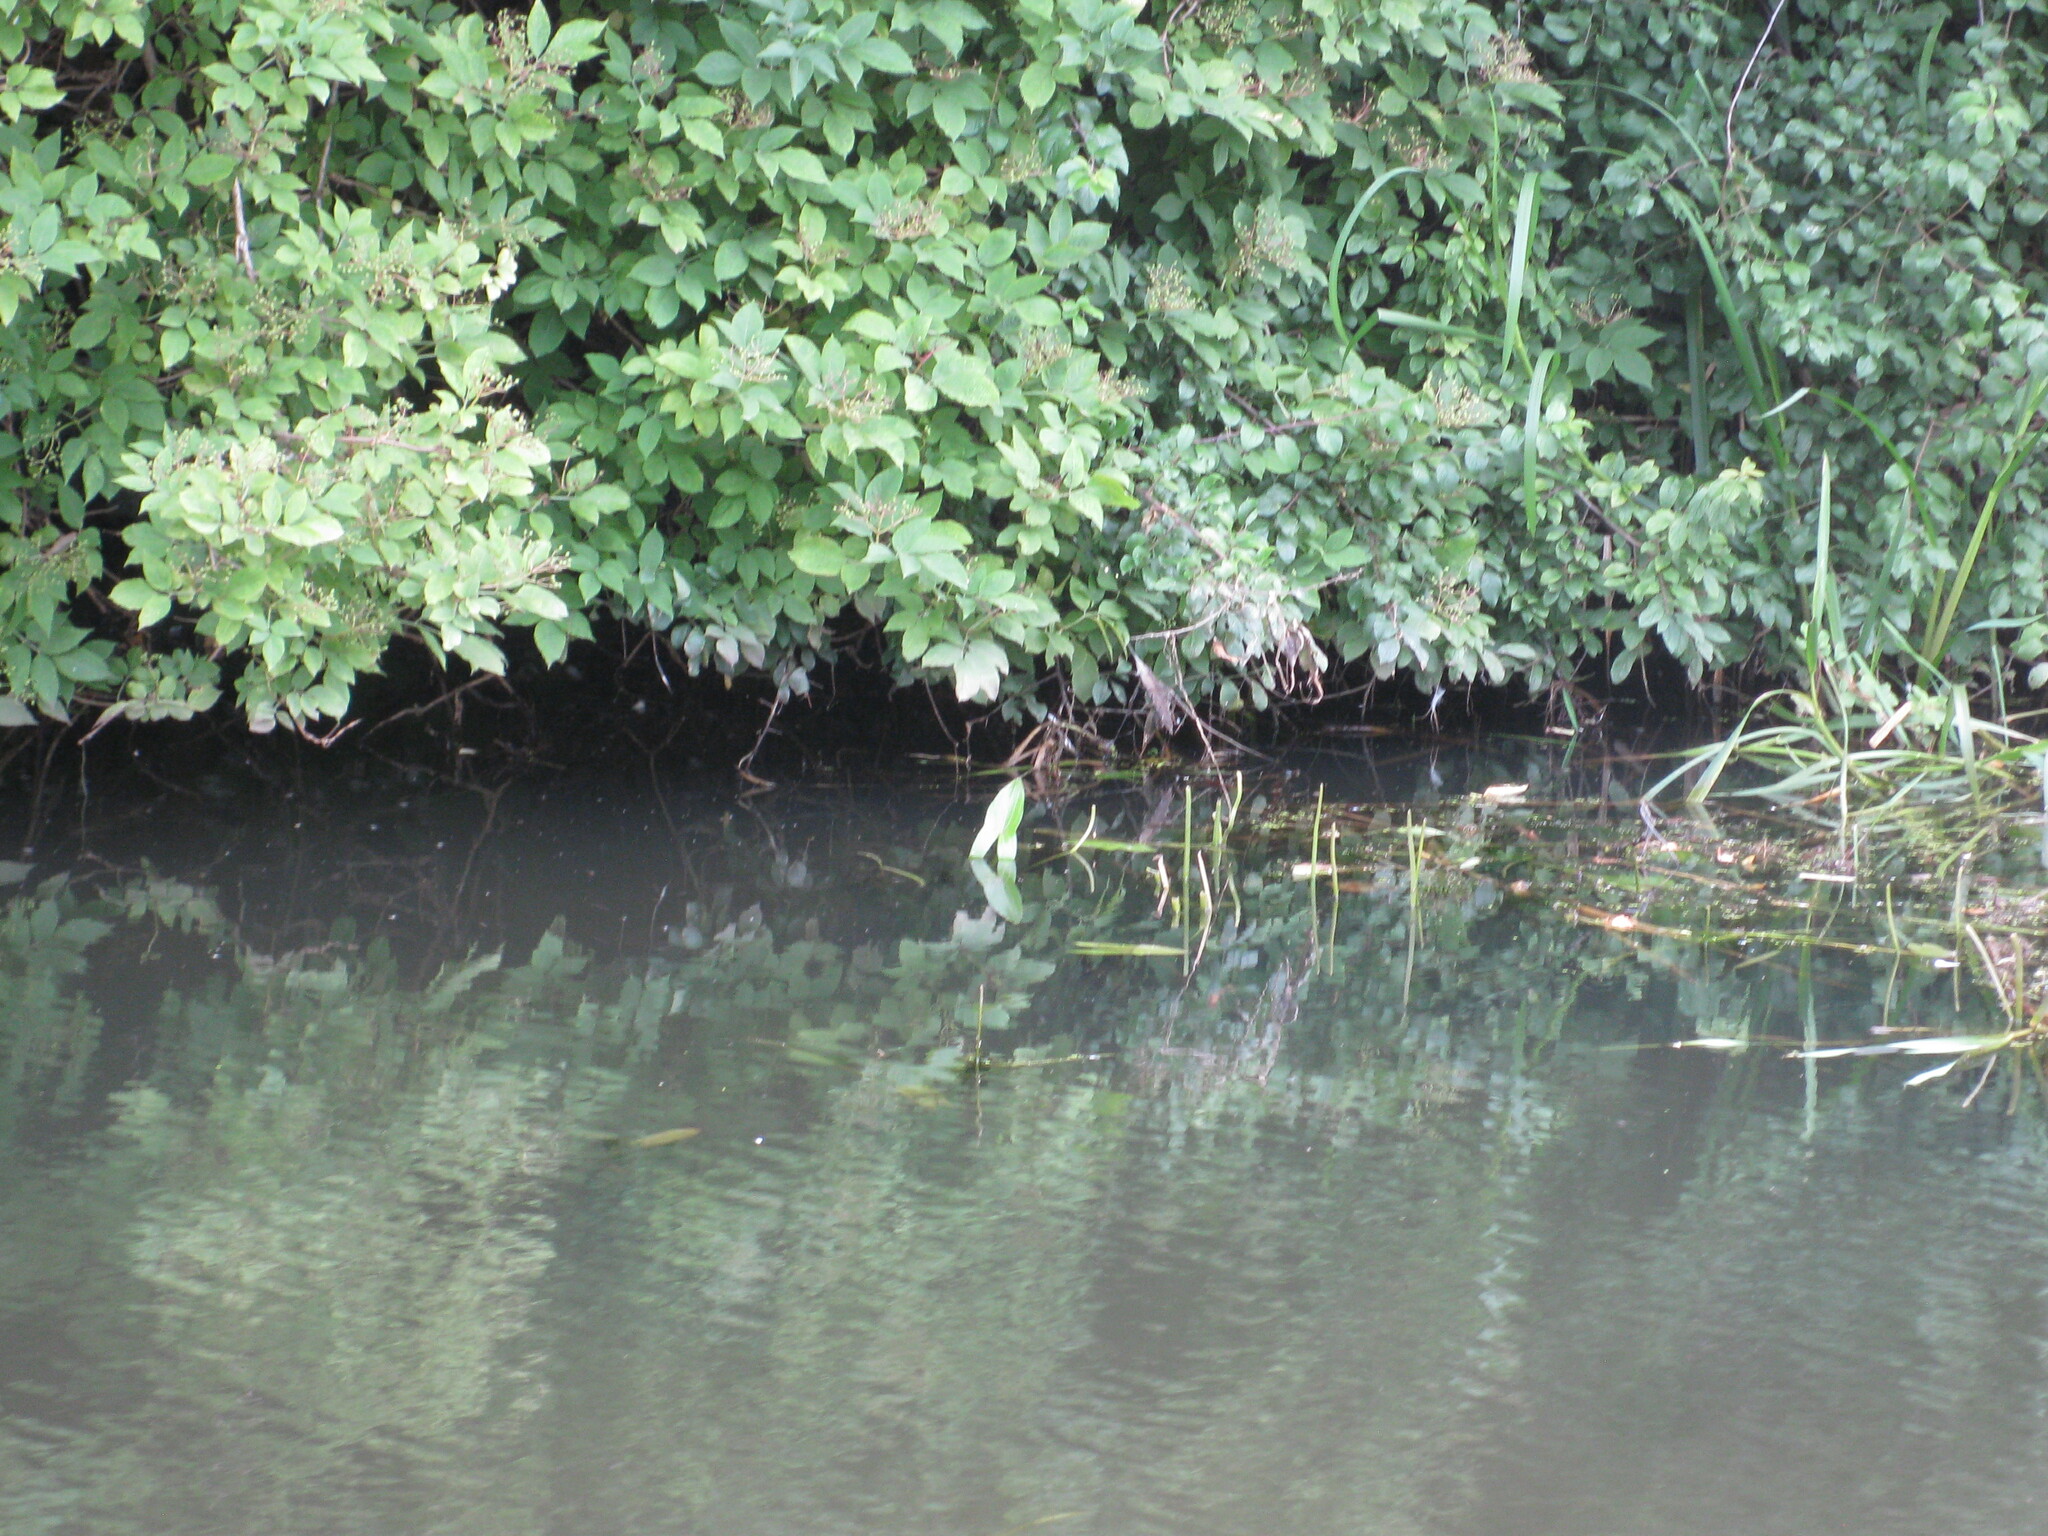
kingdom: Plantae
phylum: Tracheophyta
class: Liliopsida
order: Alismatales
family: Alismataceae
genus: Sagittaria
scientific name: Sagittaria sagittifolia
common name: Arrowhead
